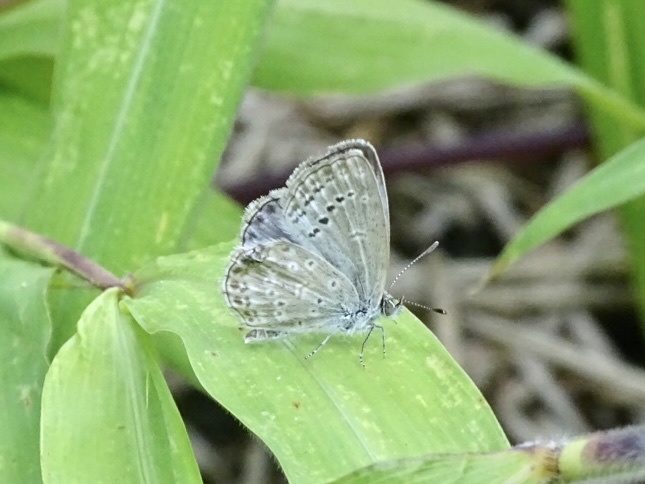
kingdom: Animalia
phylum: Arthropoda
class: Insecta
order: Lepidoptera
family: Lycaenidae
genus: Pseudozizeeria
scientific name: Pseudozizeeria maha
